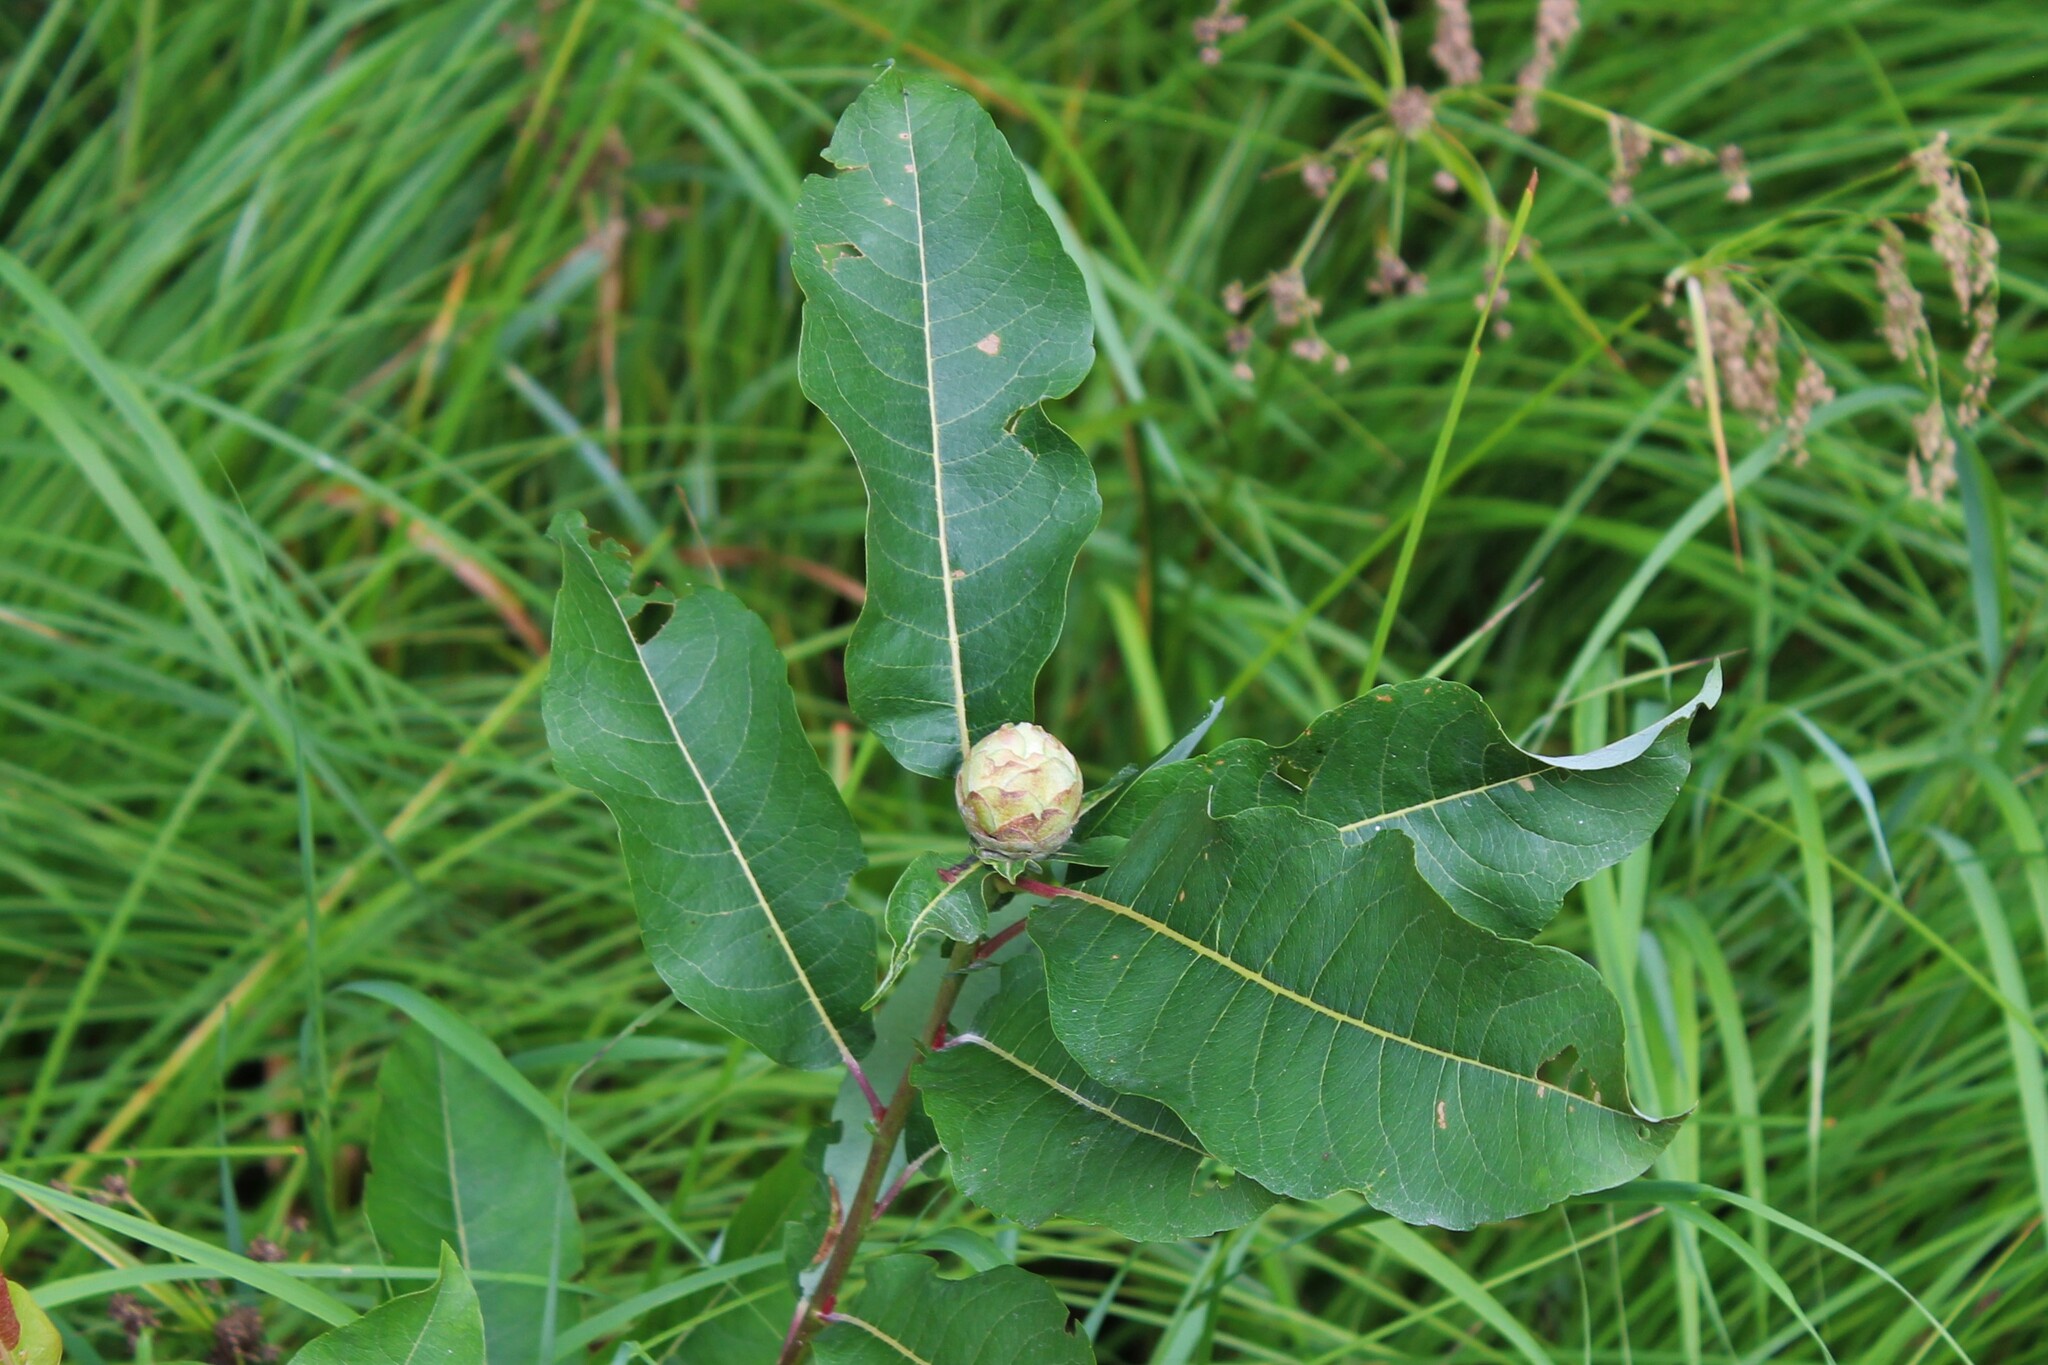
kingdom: Animalia
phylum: Arthropoda
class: Insecta
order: Diptera
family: Cecidomyiidae
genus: Rabdophaga
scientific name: Rabdophaga strobiloides
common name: Willow pinecone gall midge
